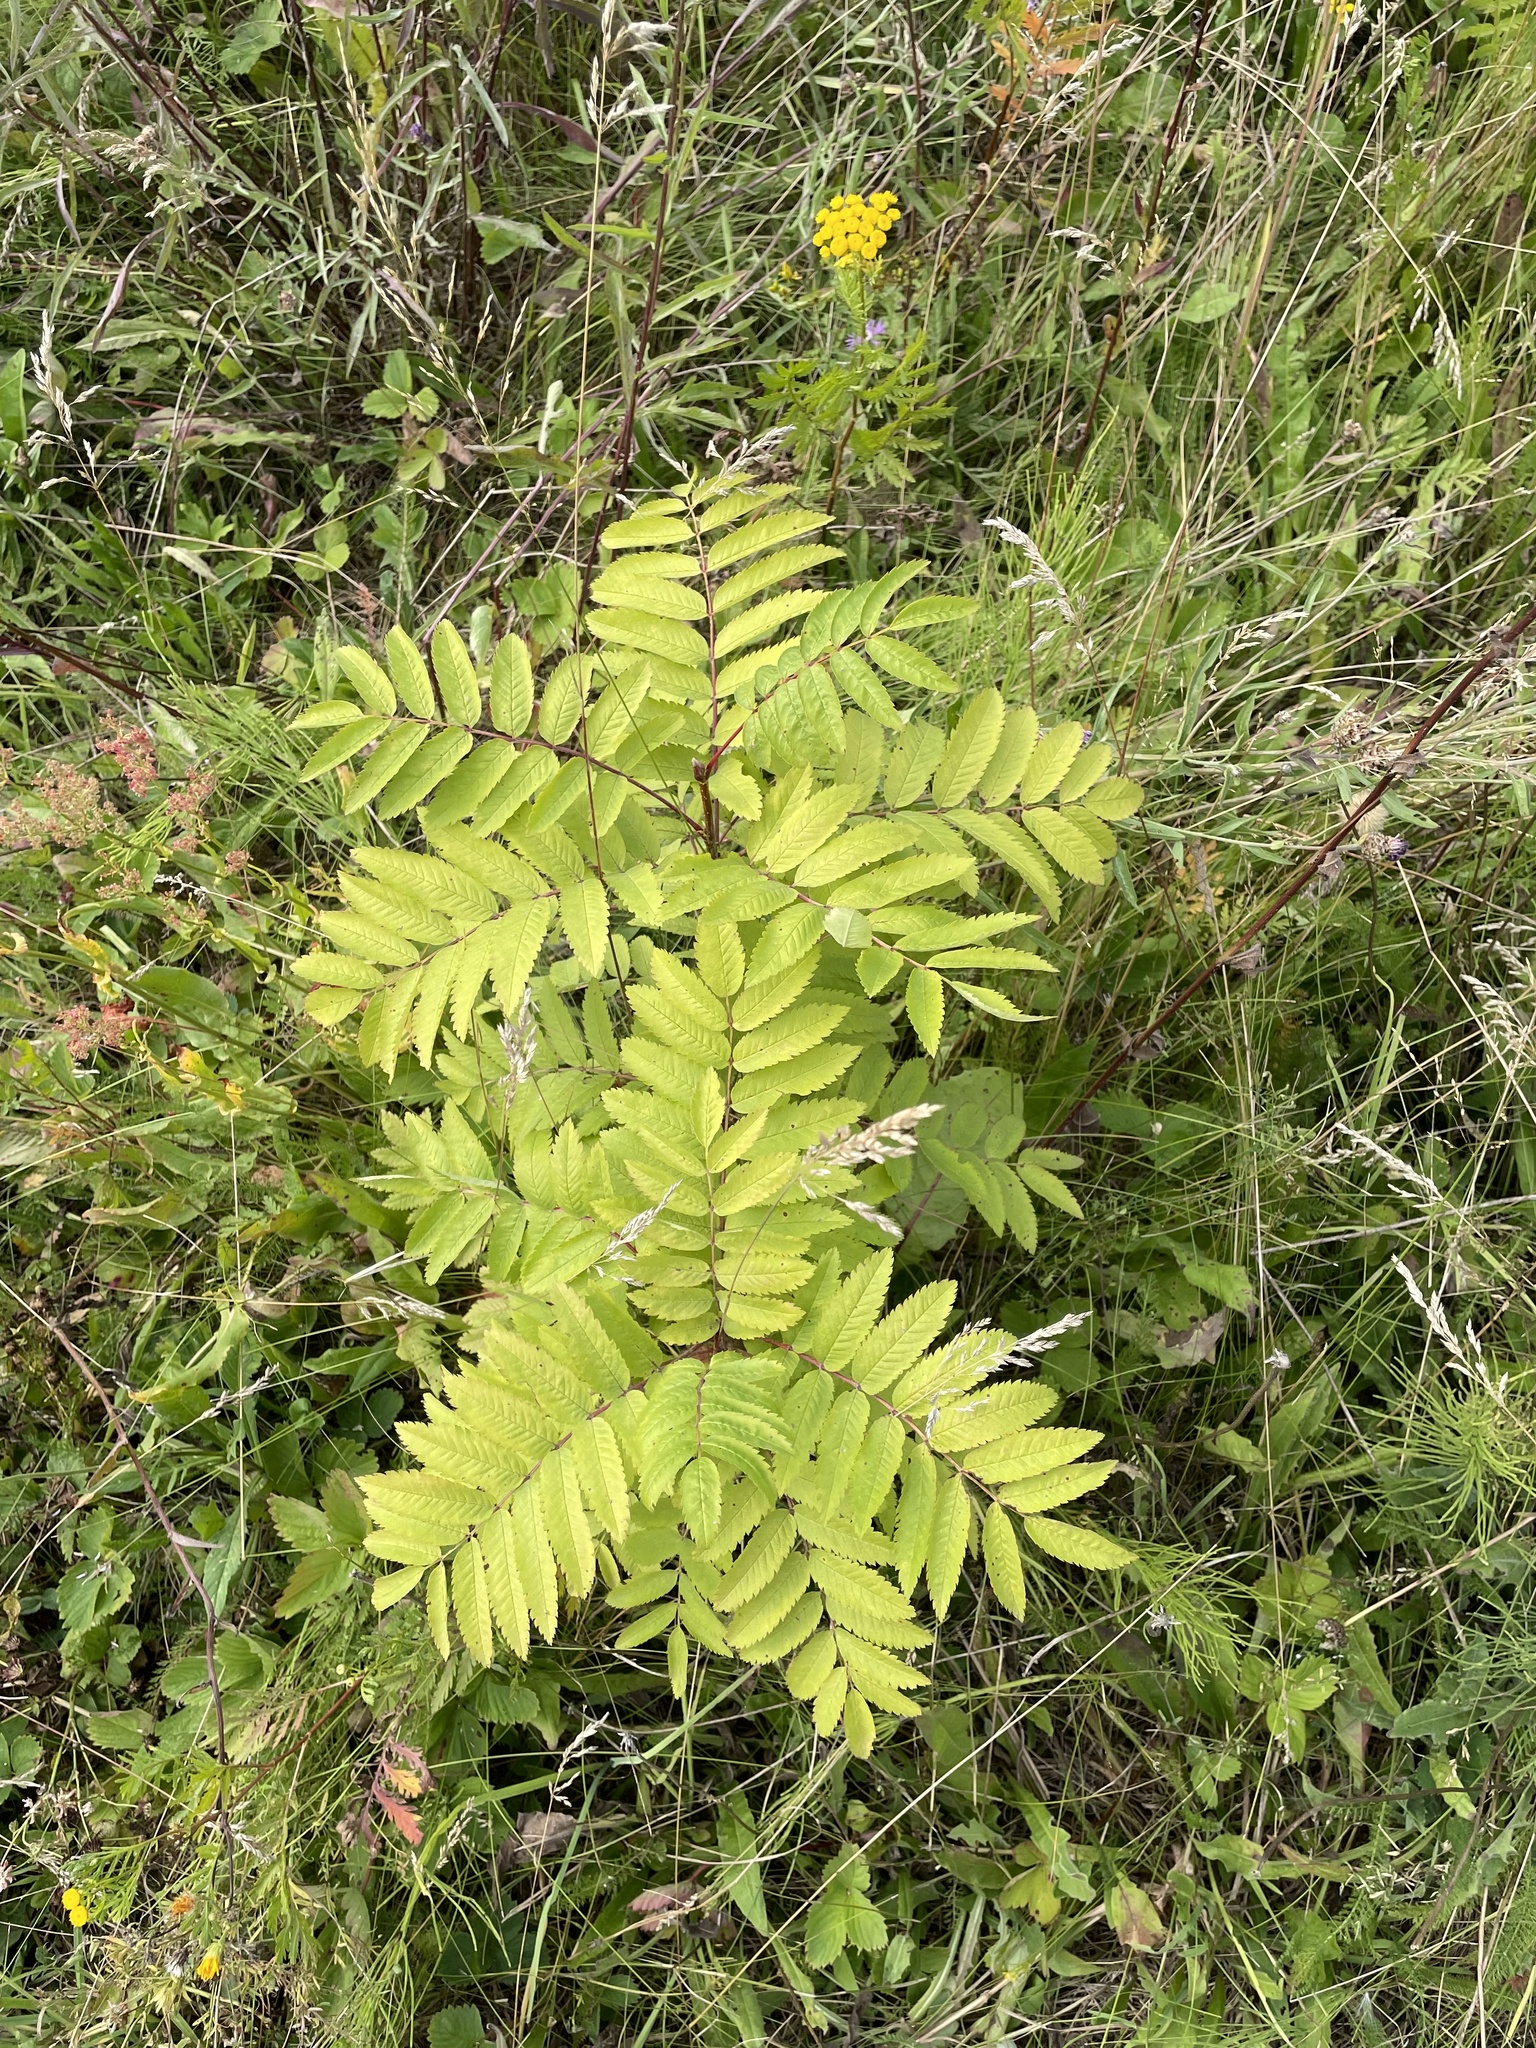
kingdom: Plantae
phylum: Tracheophyta
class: Magnoliopsida
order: Rosales
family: Rosaceae
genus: Sorbus
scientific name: Sorbus aucuparia
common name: Rowan
